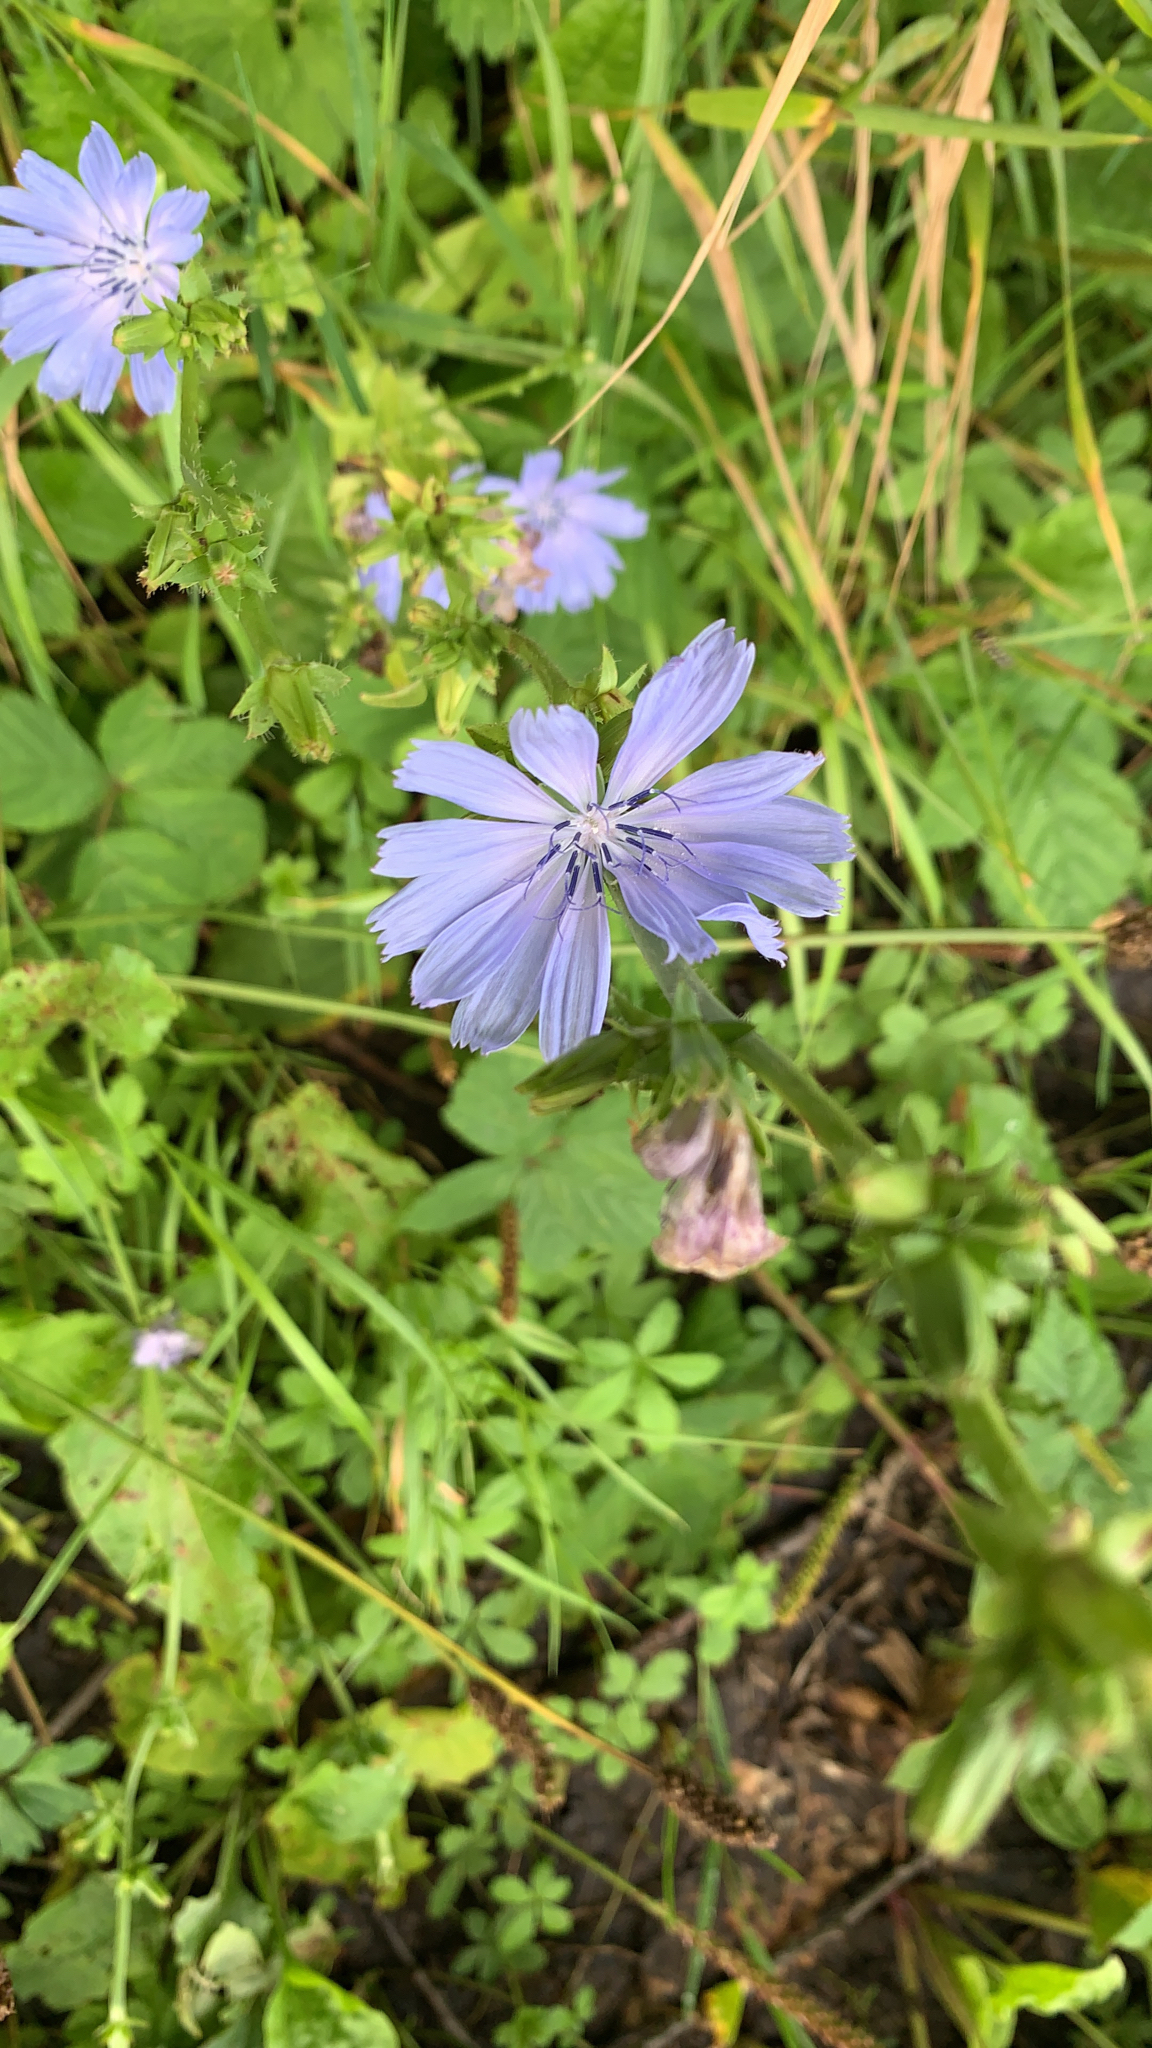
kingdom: Plantae
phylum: Tracheophyta
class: Magnoliopsida
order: Asterales
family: Asteraceae
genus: Cichorium
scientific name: Cichorium intybus
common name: Chicory
